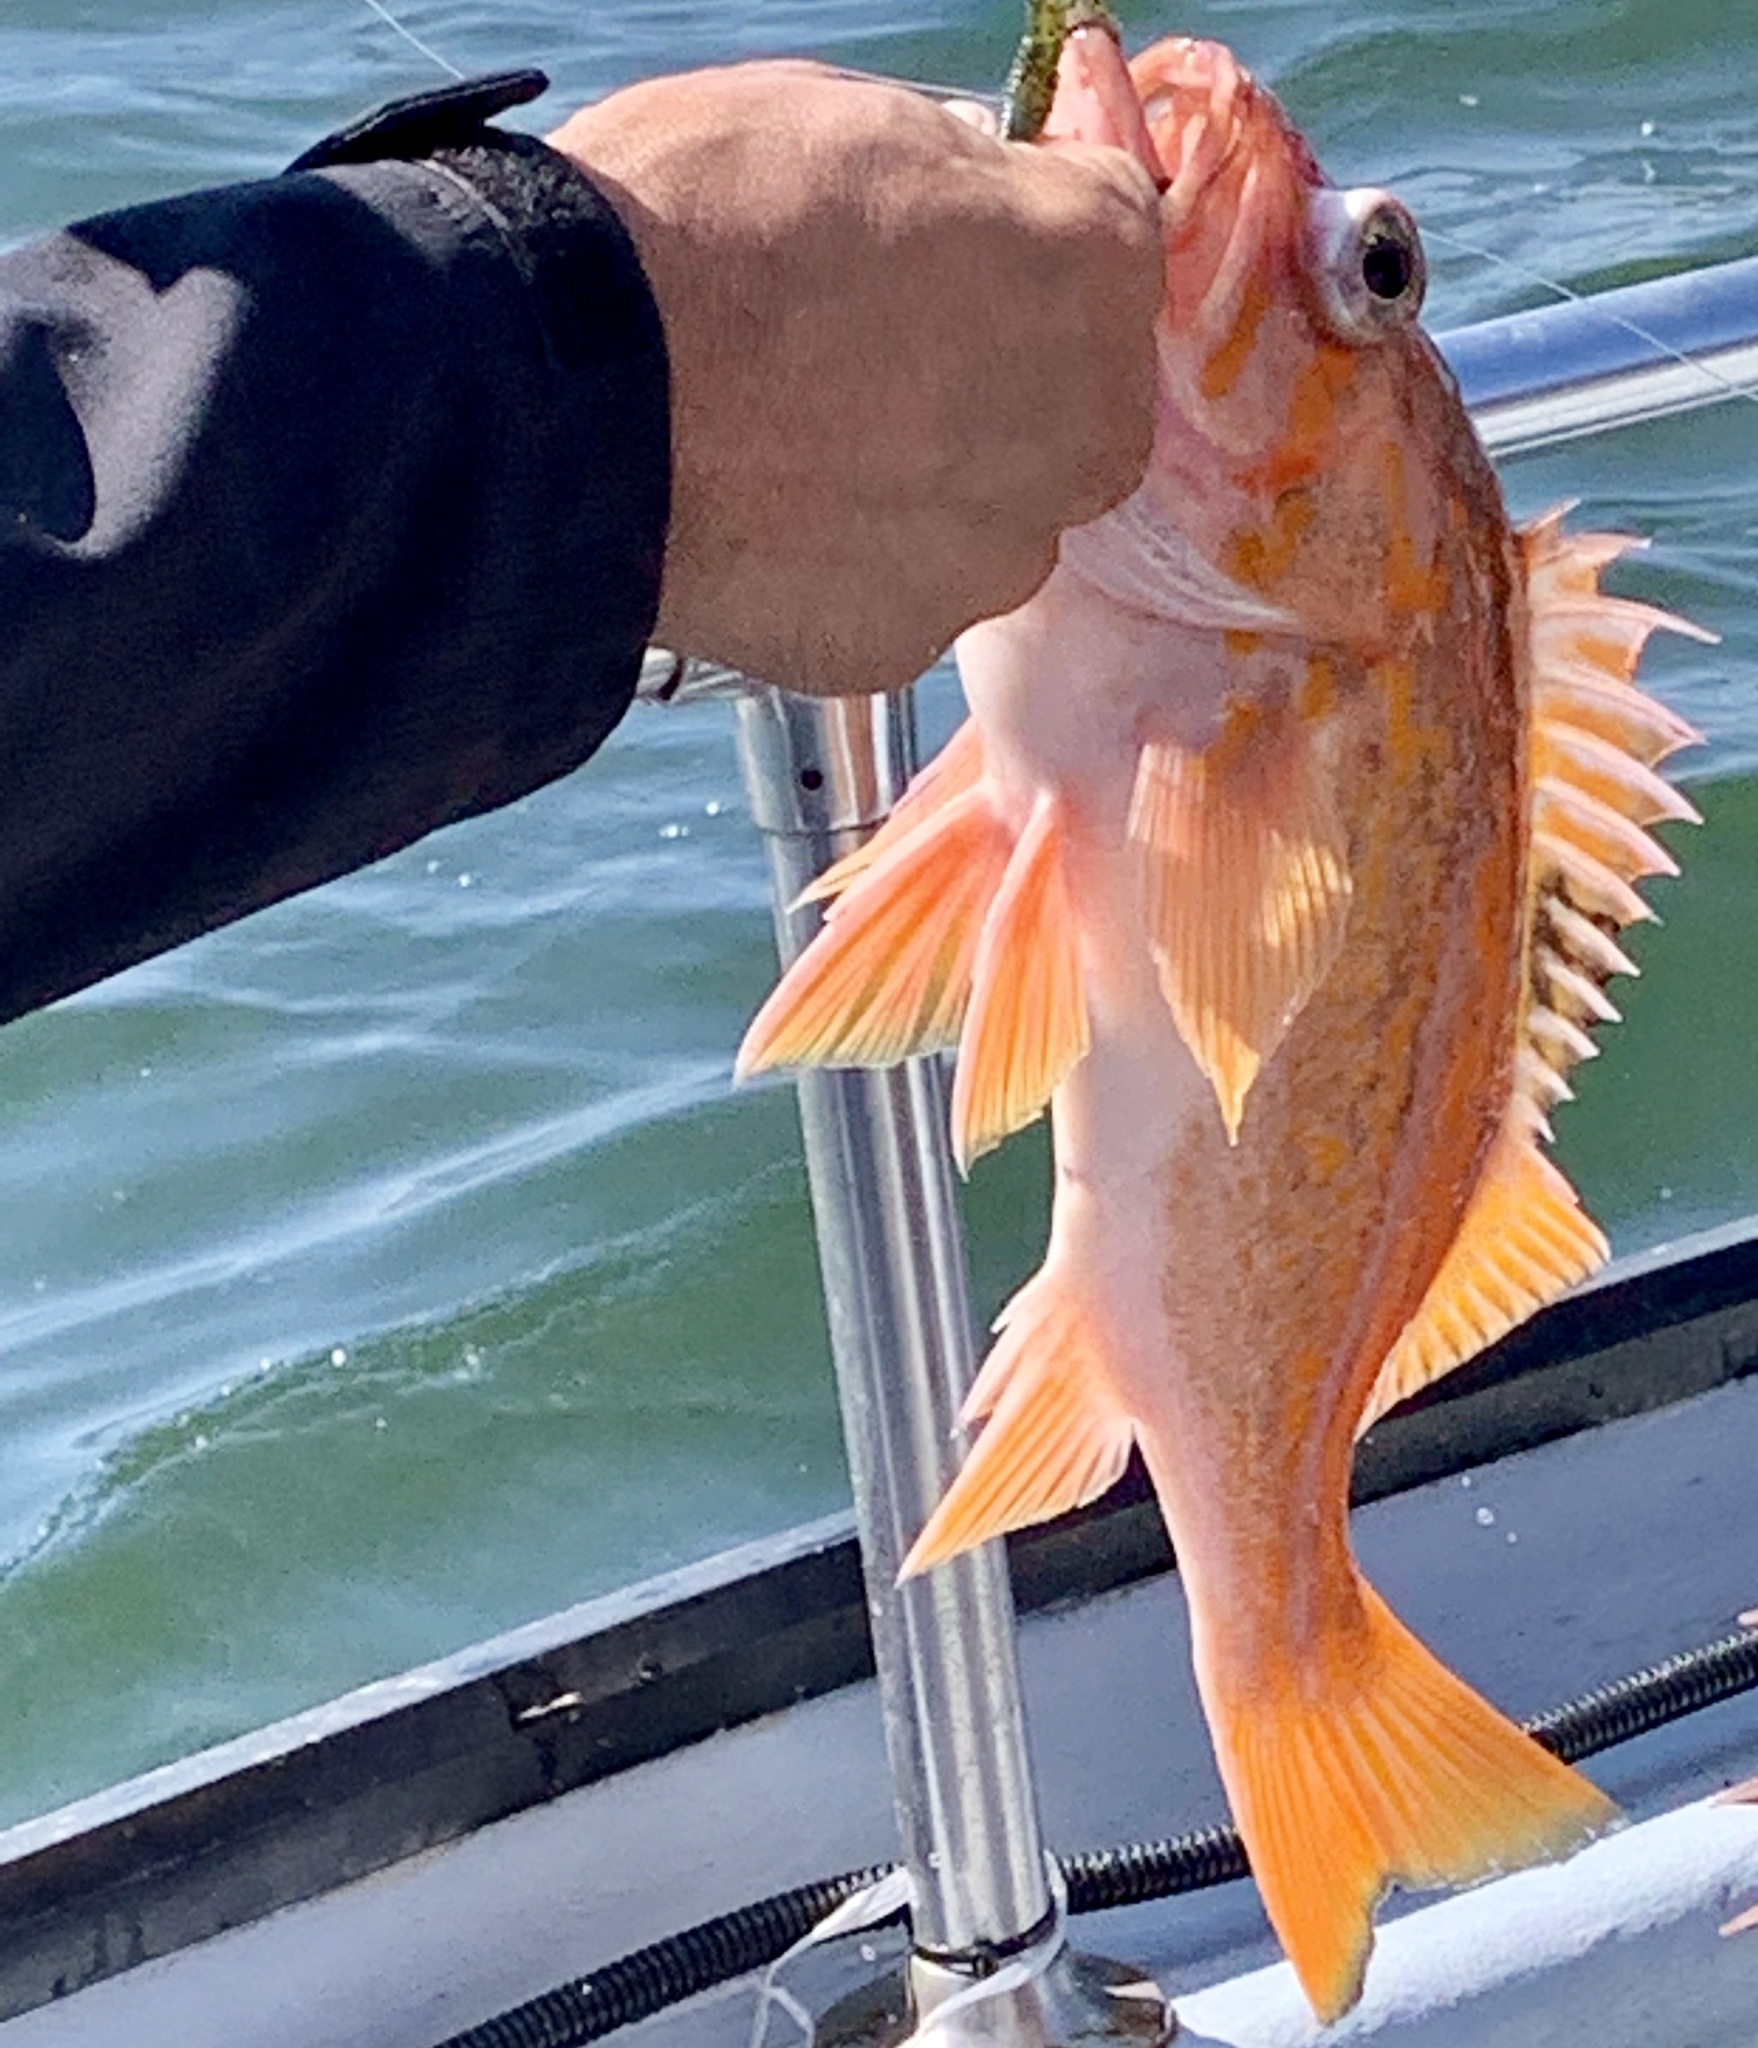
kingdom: Animalia
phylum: Chordata
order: Scorpaeniformes
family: Sebastidae
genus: Sebastes
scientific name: Sebastes pinniger
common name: Canary rockfish
